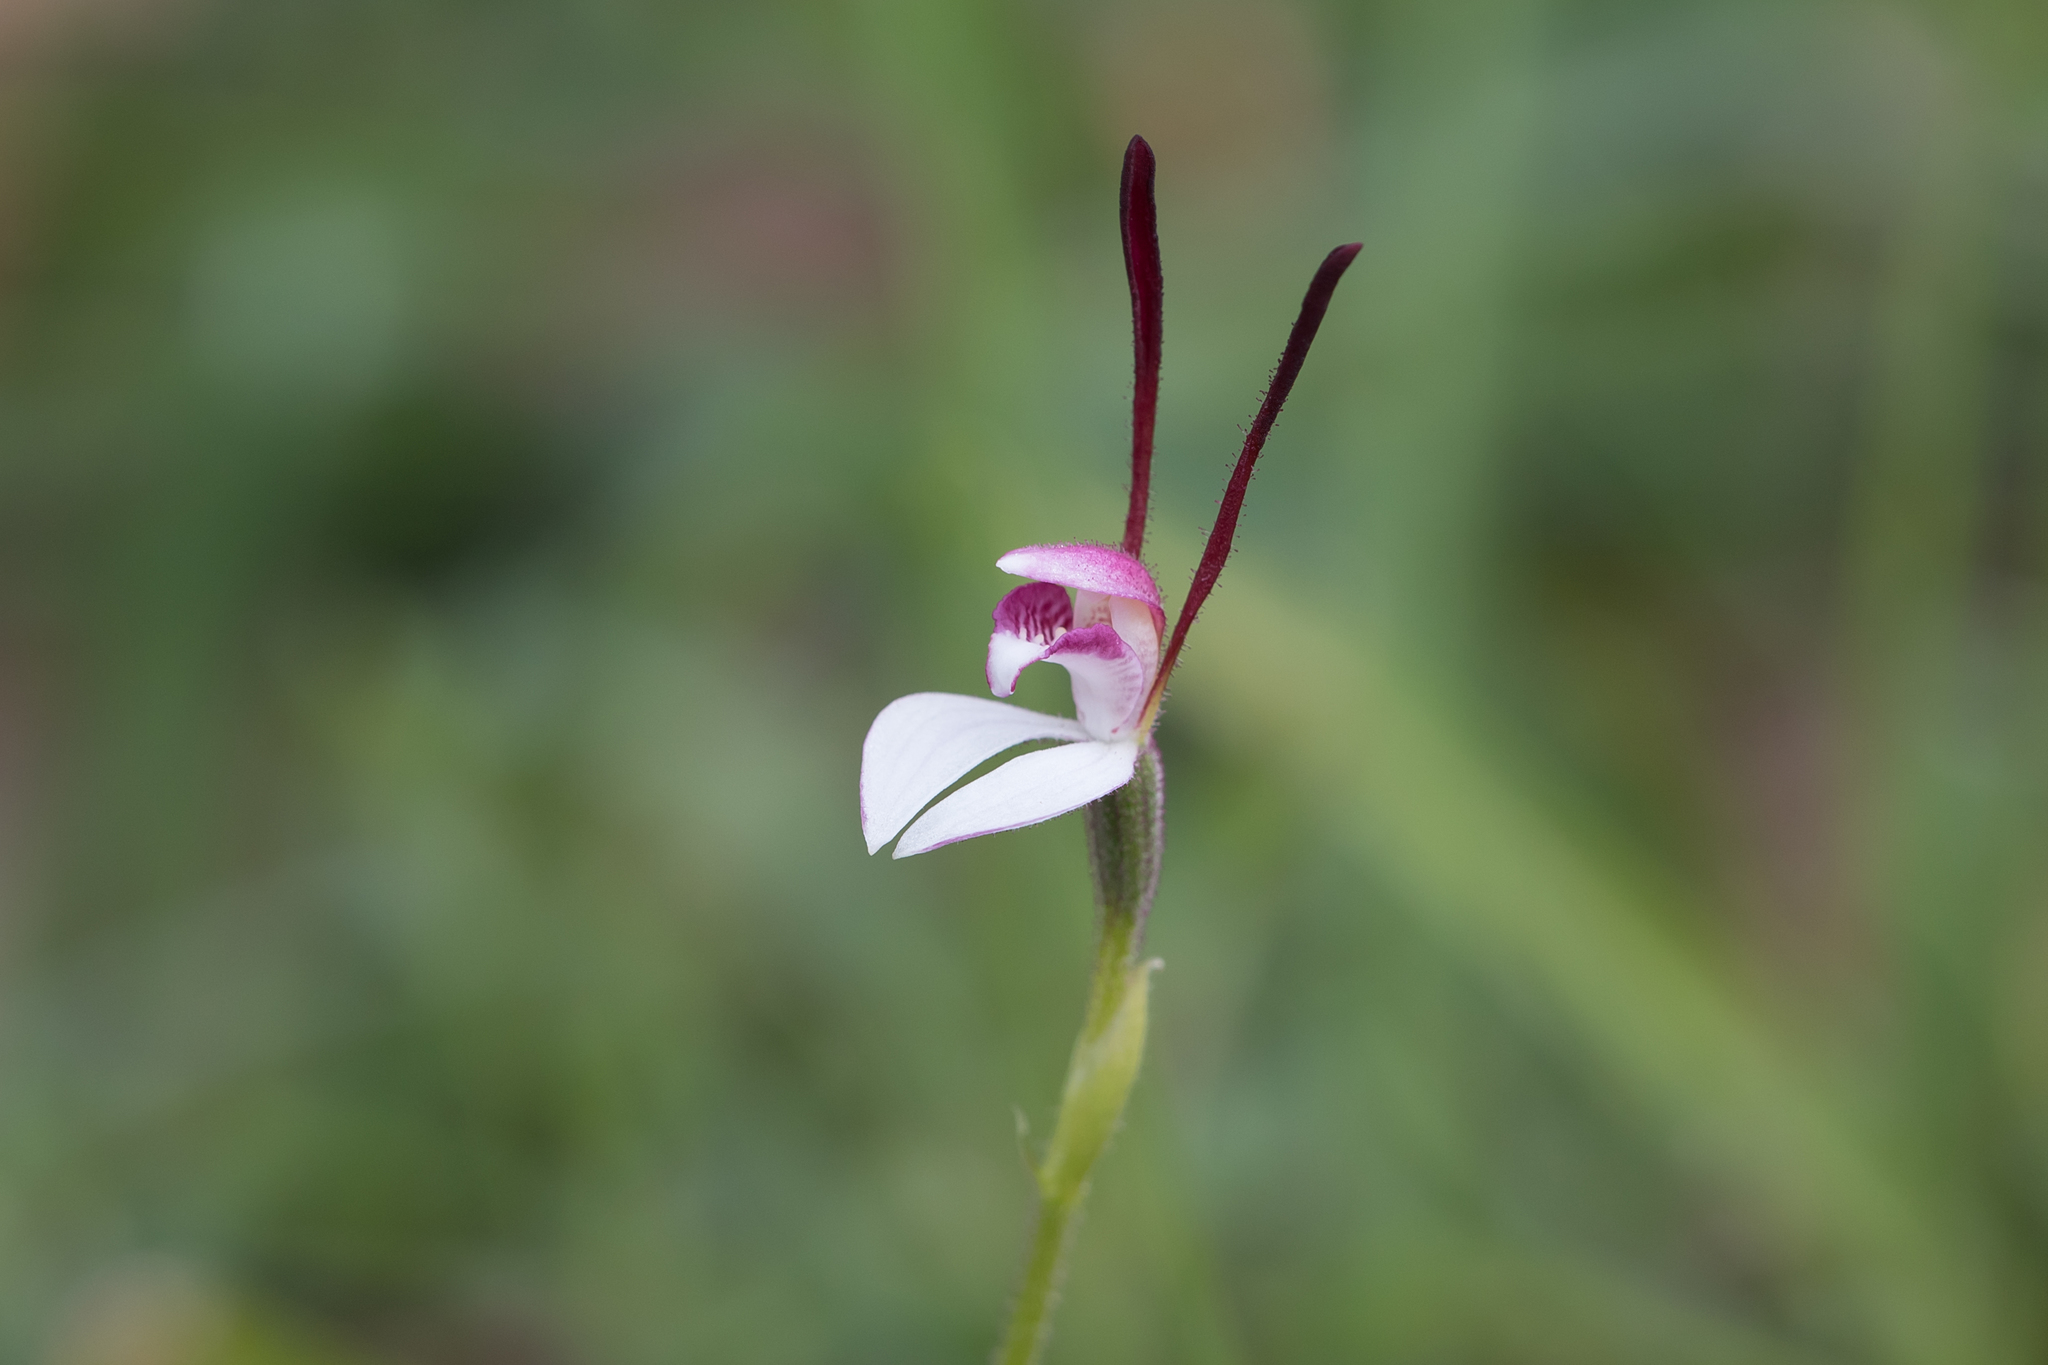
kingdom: Plantae
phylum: Tracheophyta
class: Liliopsida
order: Asparagales
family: Orchidaceae
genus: Leptoceras
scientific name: Leptoceras menziesii
